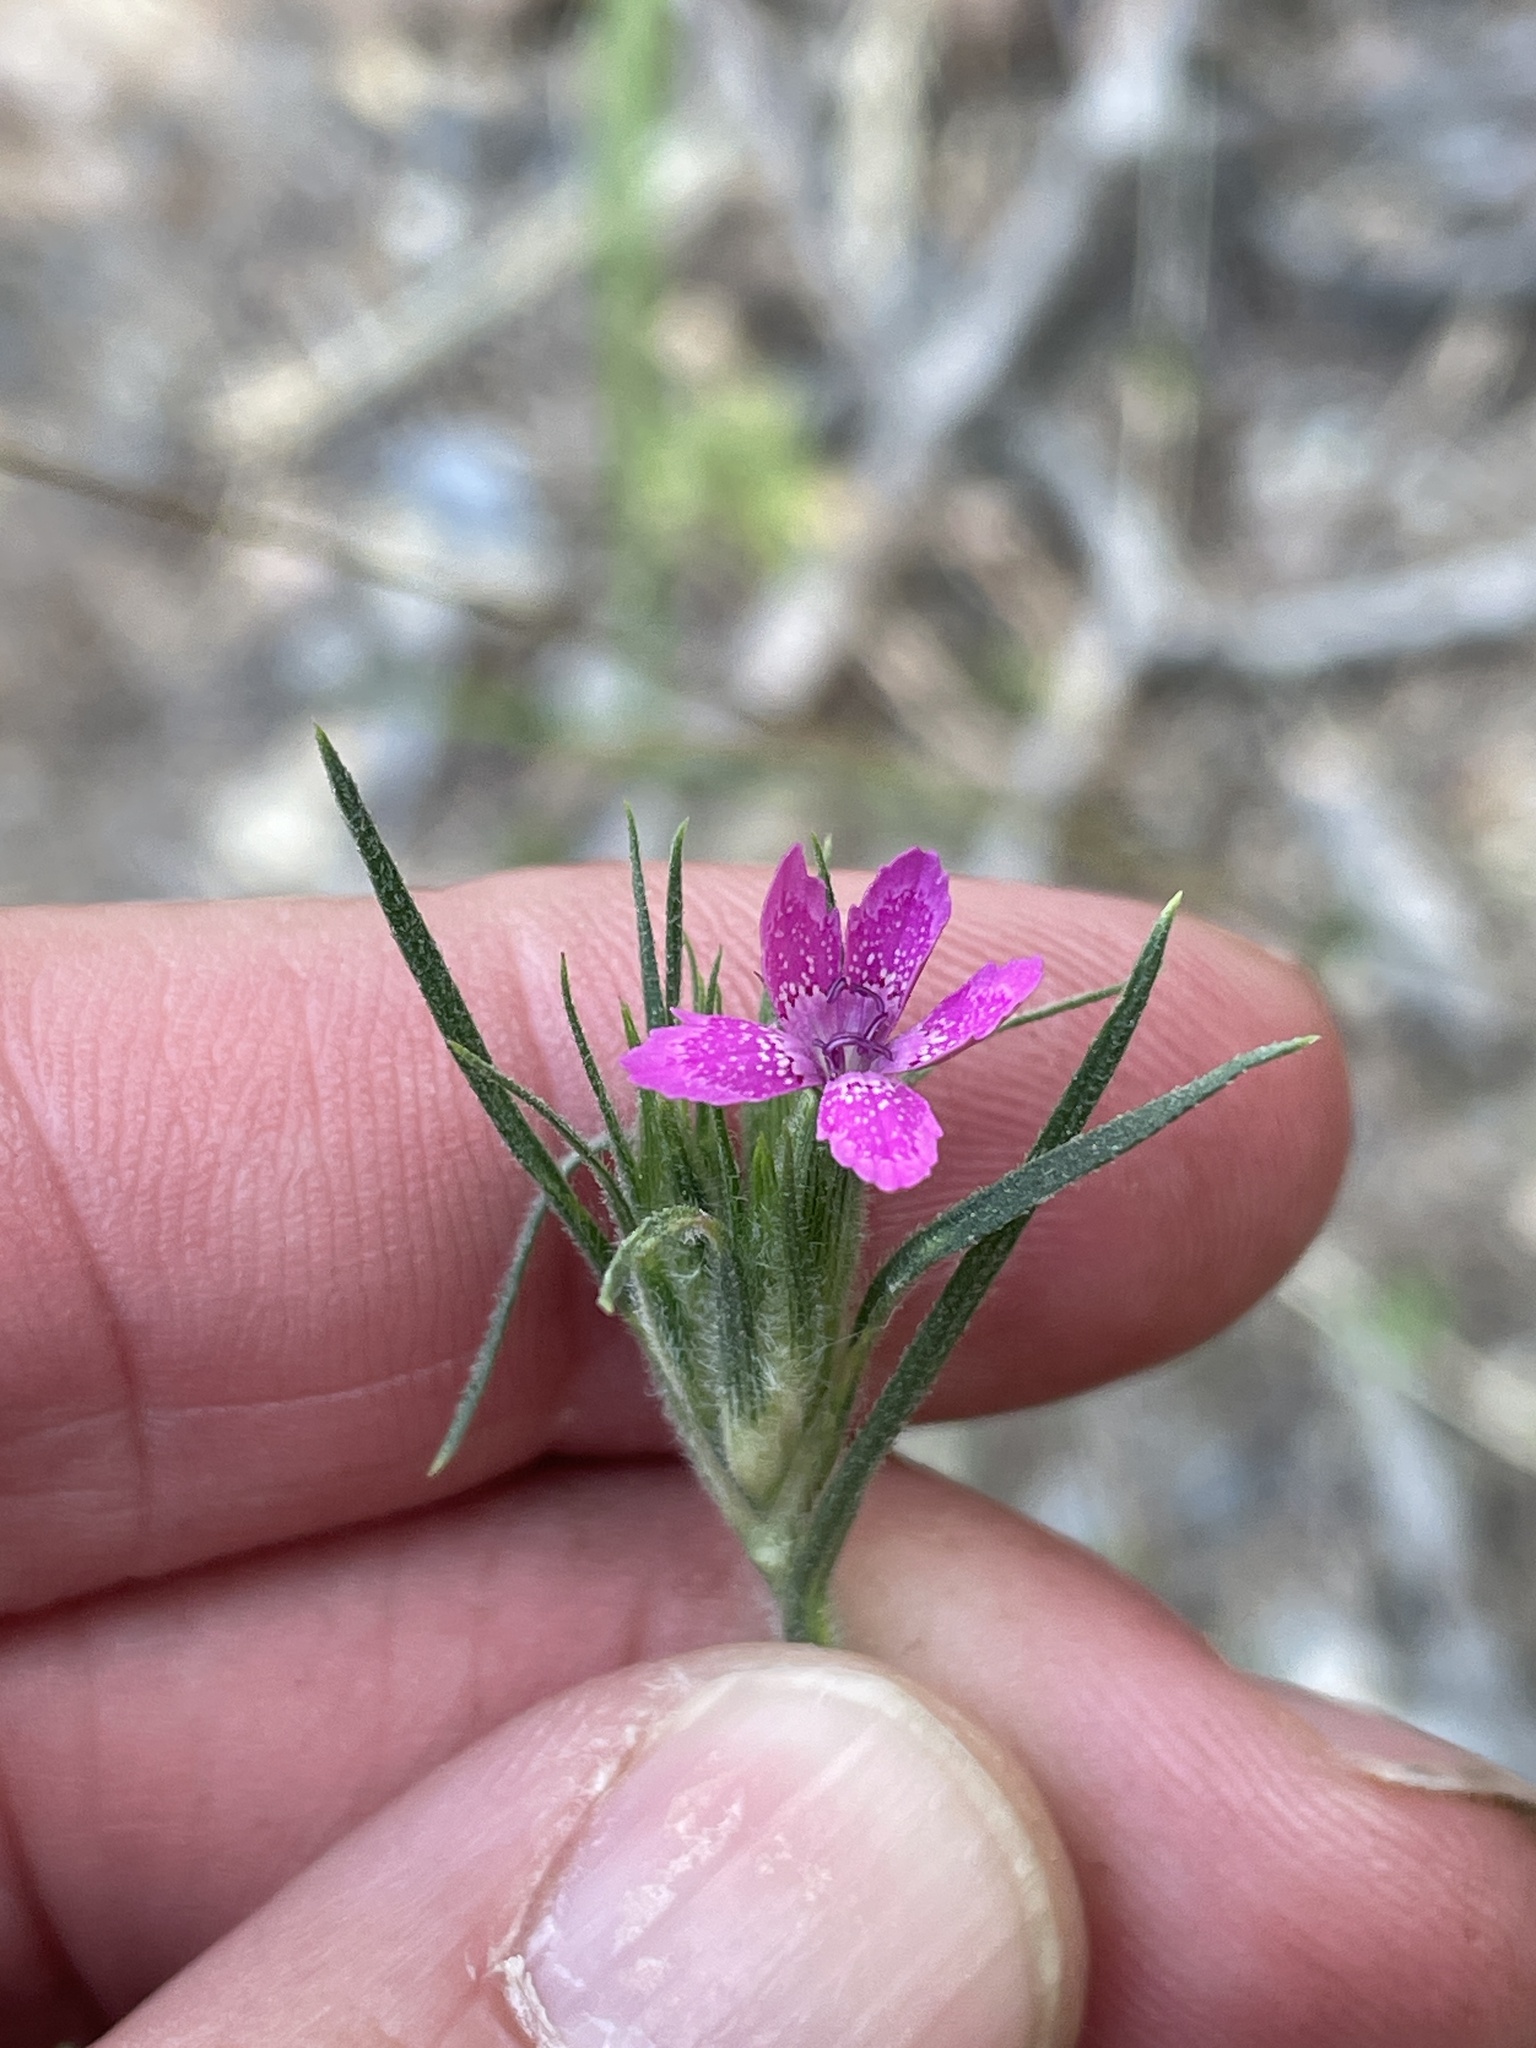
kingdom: Plantae
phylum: Tracheophyta
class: Magnoliopsida
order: Caryophyllales
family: Caryophyllaceae
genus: Dianthus
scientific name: Dianthus armeria
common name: Deptford pink
